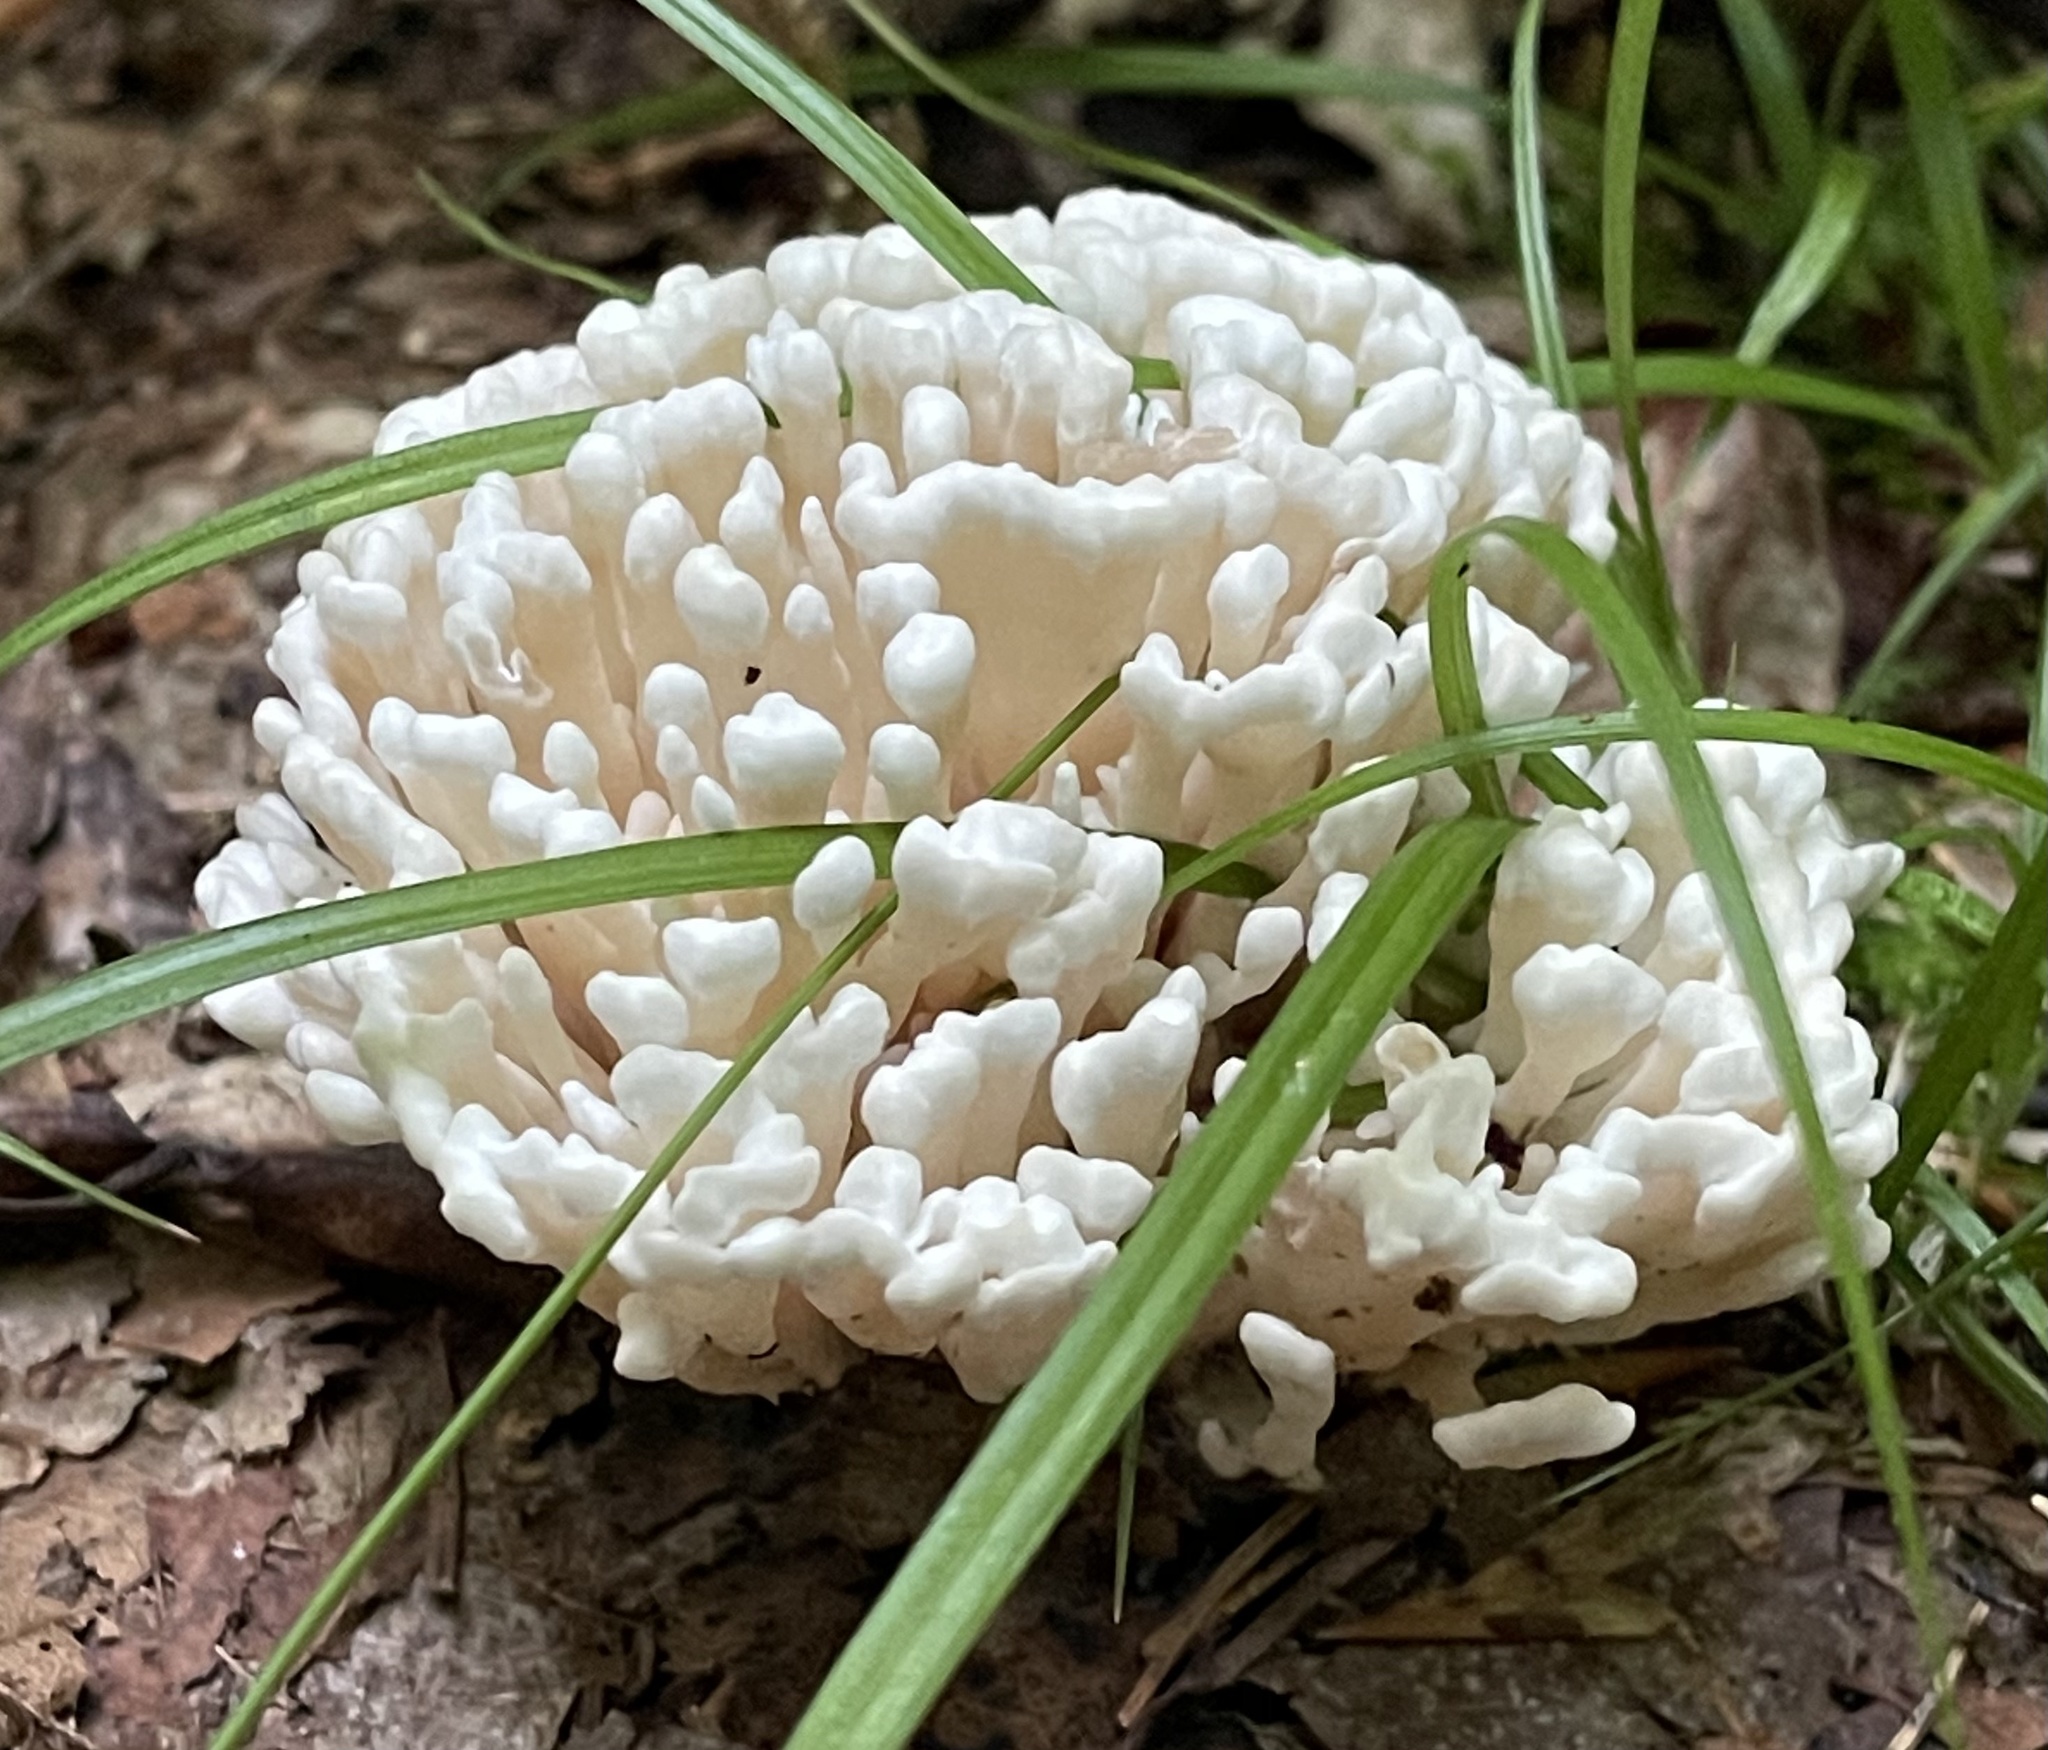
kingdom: Fungi
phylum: Basidiomycota
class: Agaricomycetes
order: Sebacinales
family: Sebacinaceae
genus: Sebacina
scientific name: Sebacina schweinitzii
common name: Jellied false coral fungus
